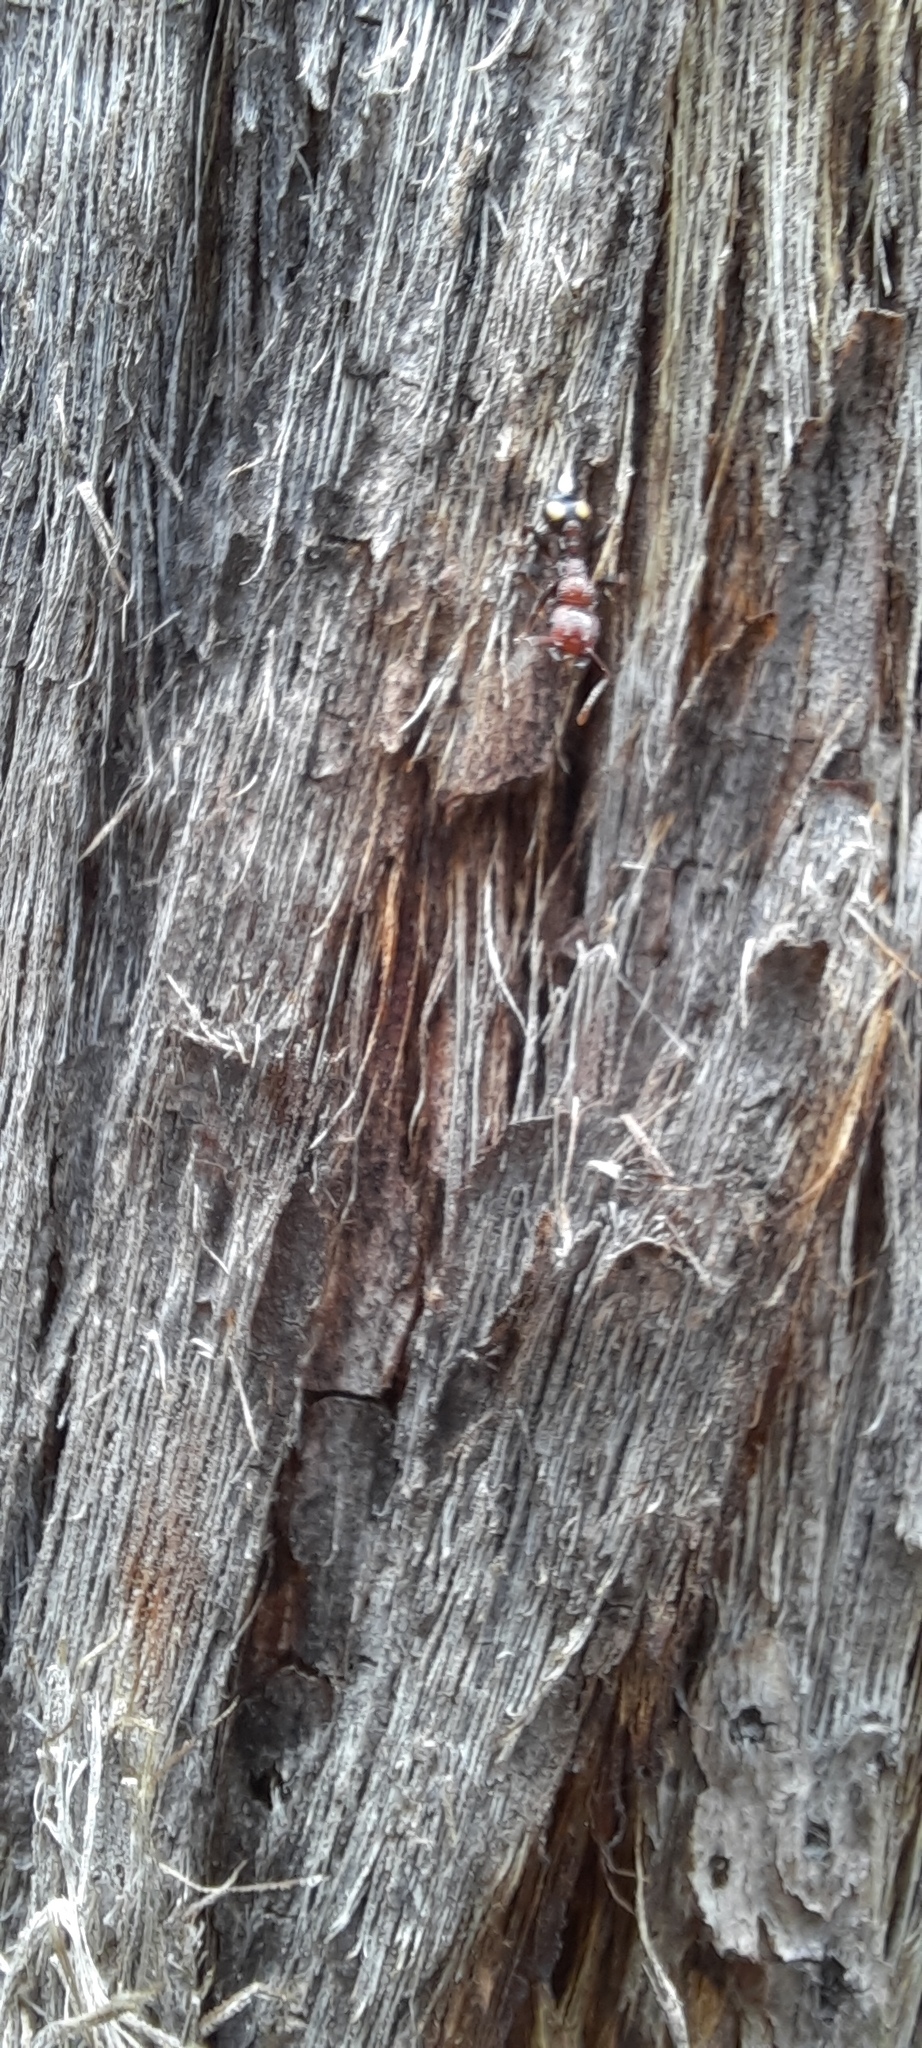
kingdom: Animalia
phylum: Arthropoda
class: Insecta
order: Hymenoptera
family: Formicidae
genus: Podomyrma
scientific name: Podomyrma adelaidae
